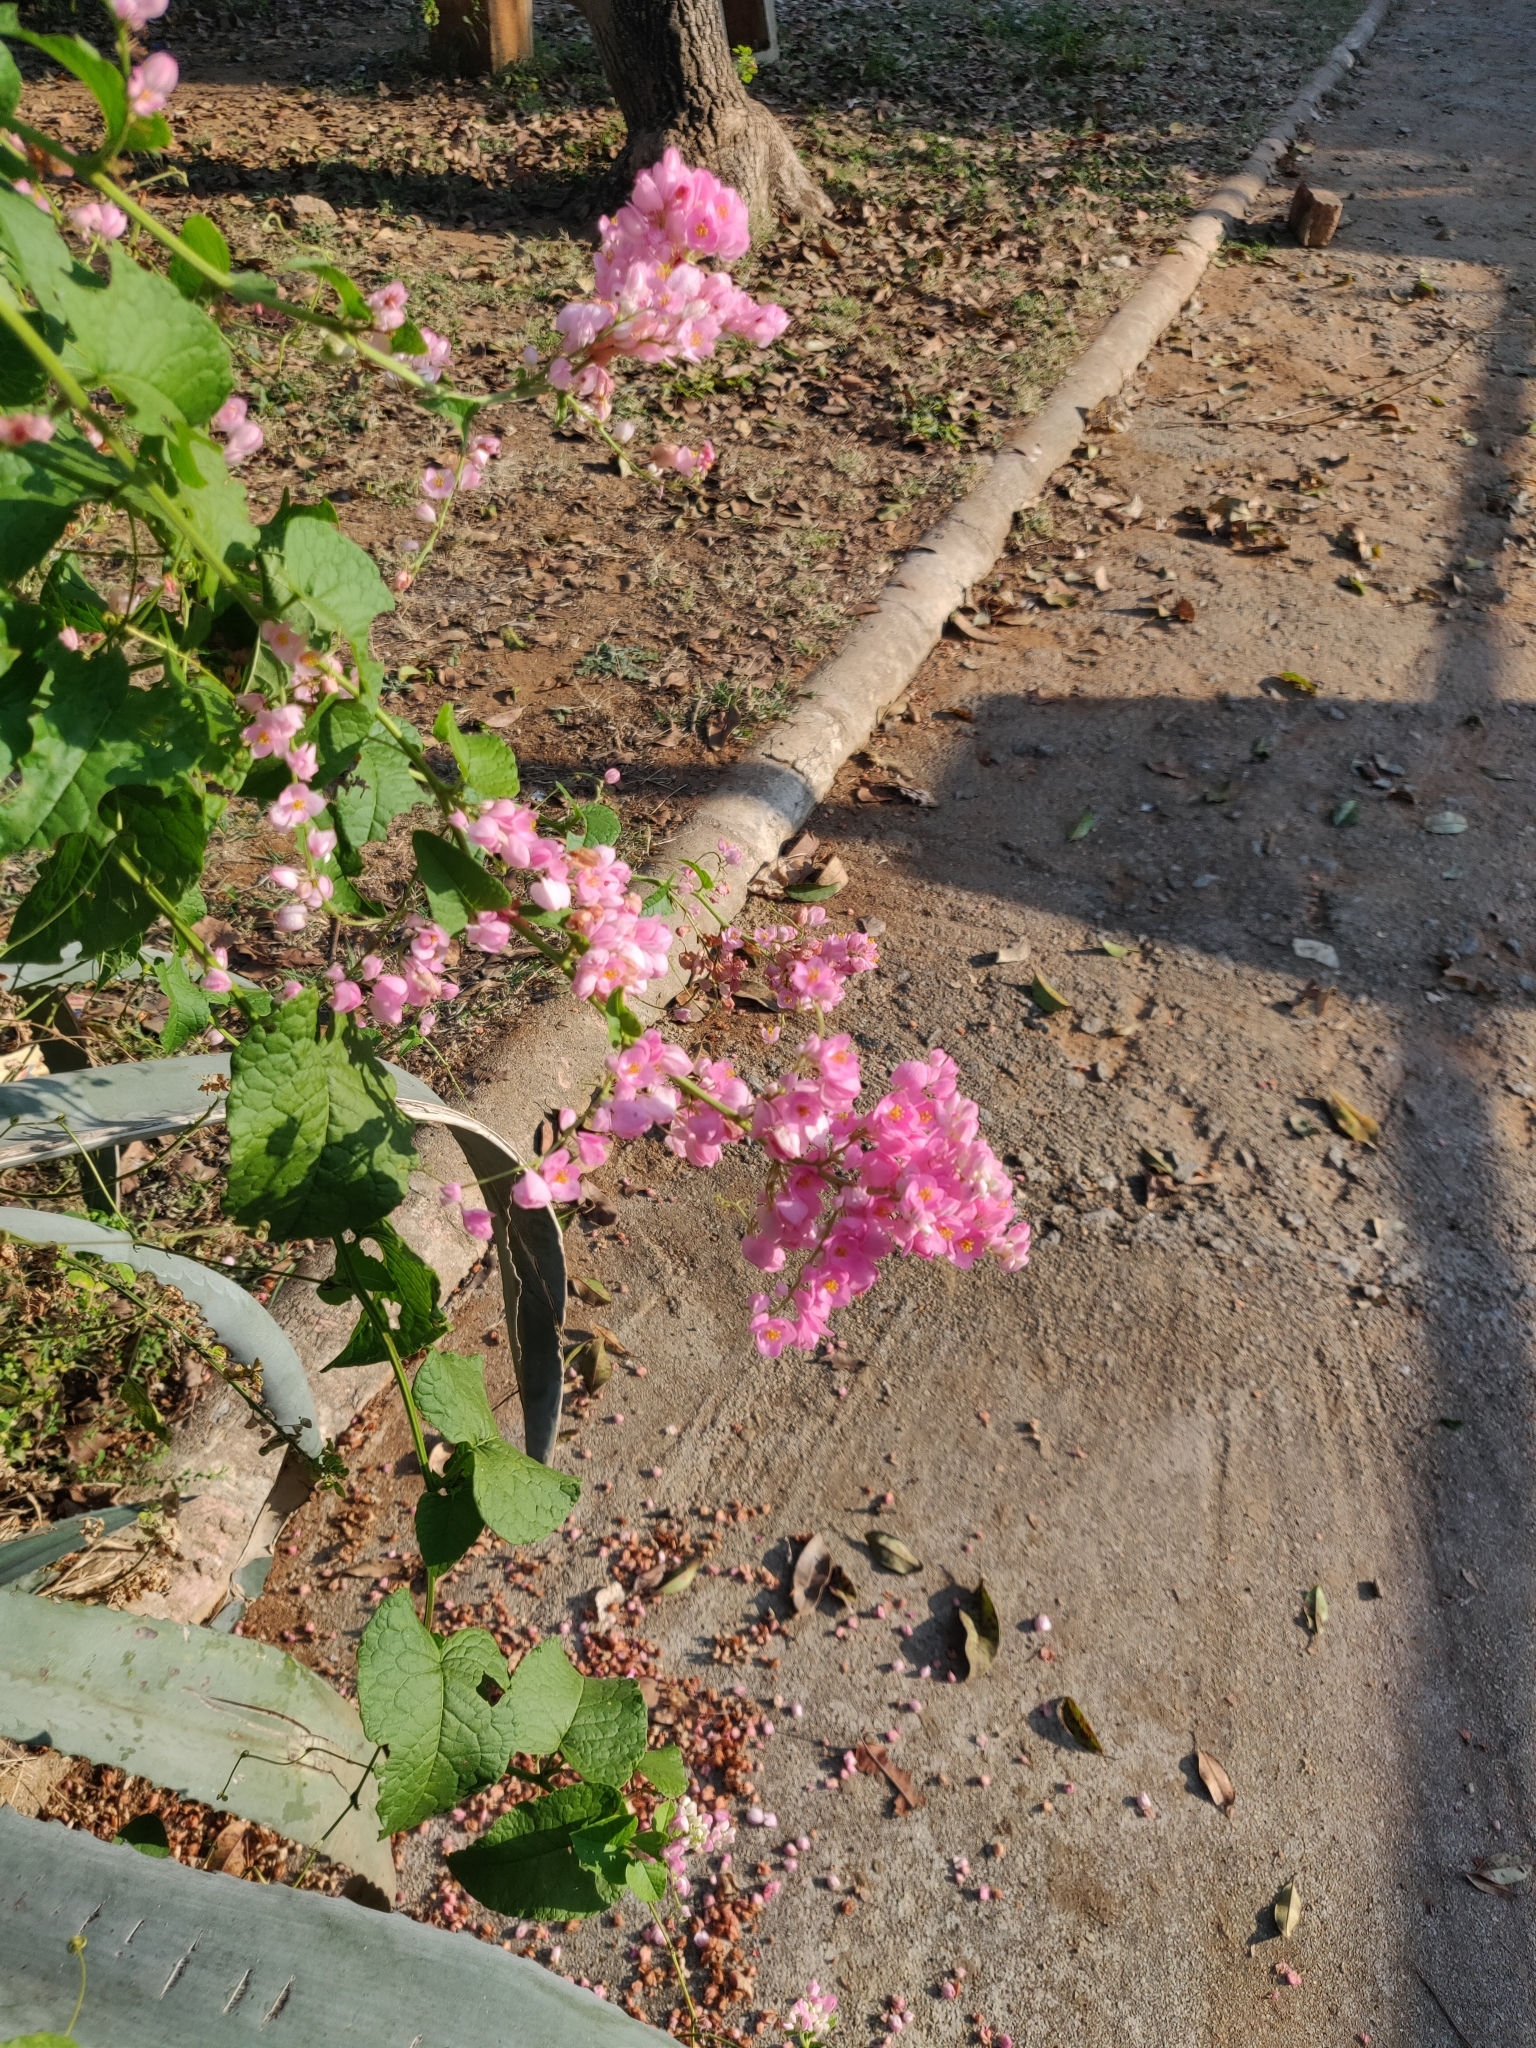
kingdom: Plantae
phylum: Tracheophyta
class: Magnoliopsida
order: Caryophyllales
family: Polygonaceae
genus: Antigonon
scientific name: Antigonon leptopus
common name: Coral vine
